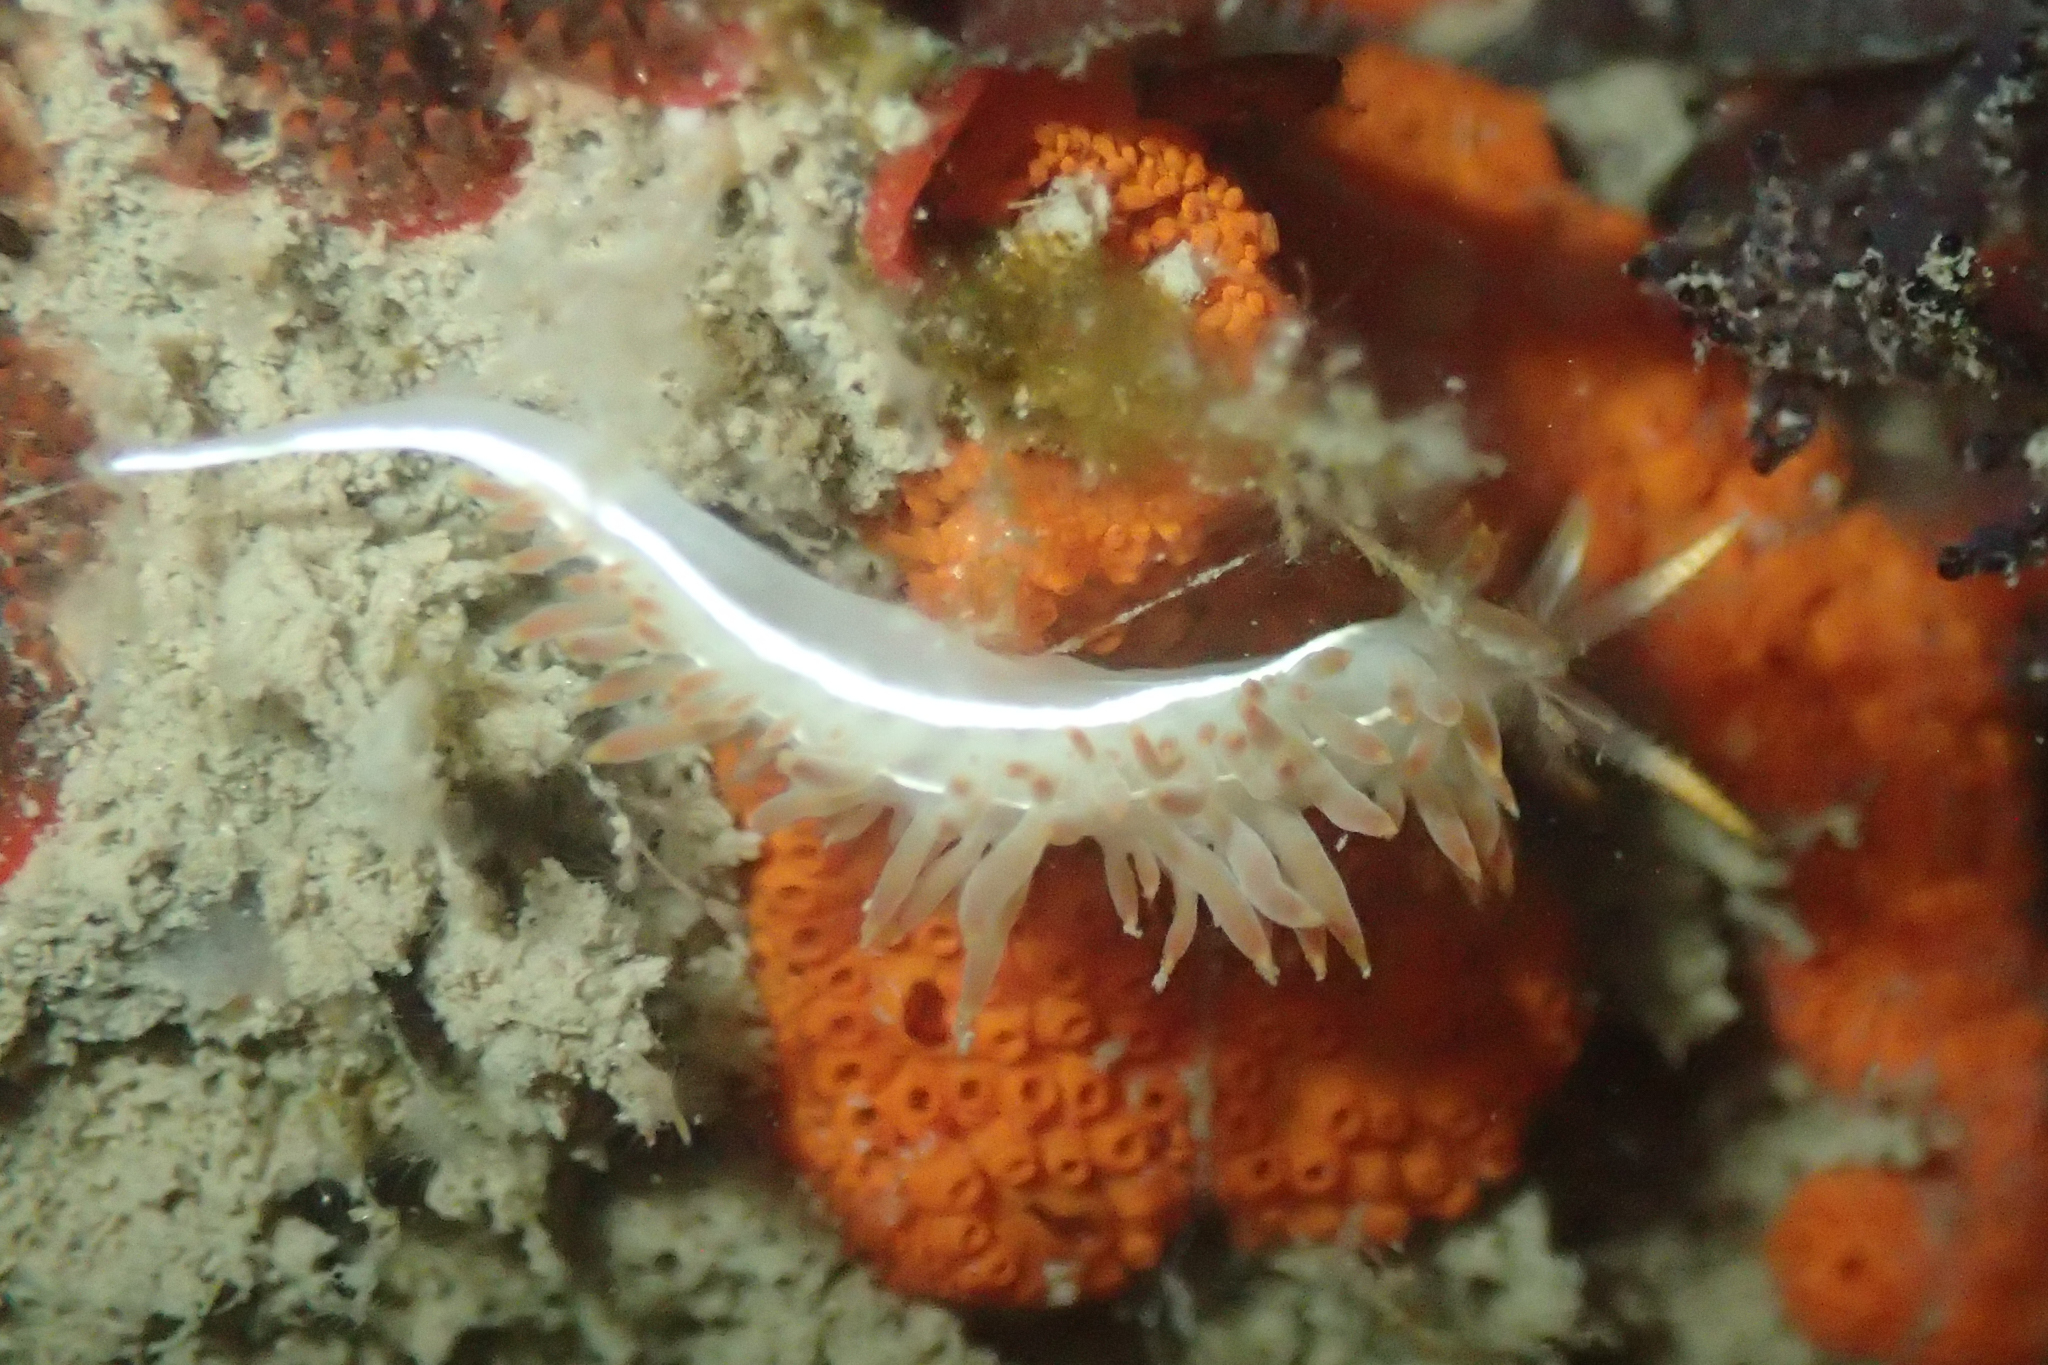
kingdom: Animalia
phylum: Mollusca
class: Gastropoda
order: Nudibranchia
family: Coryphellidae
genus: Coryphella
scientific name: Coryphella trilineata
